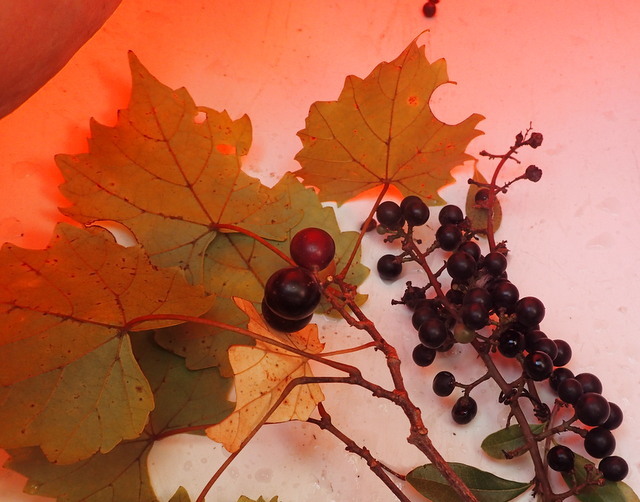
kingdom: Plantae
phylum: Tracheophyta
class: Magnoliopsida
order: Vitales
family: Vitaceae
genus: Vitis
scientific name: Vitis vulpina
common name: Frost grape
